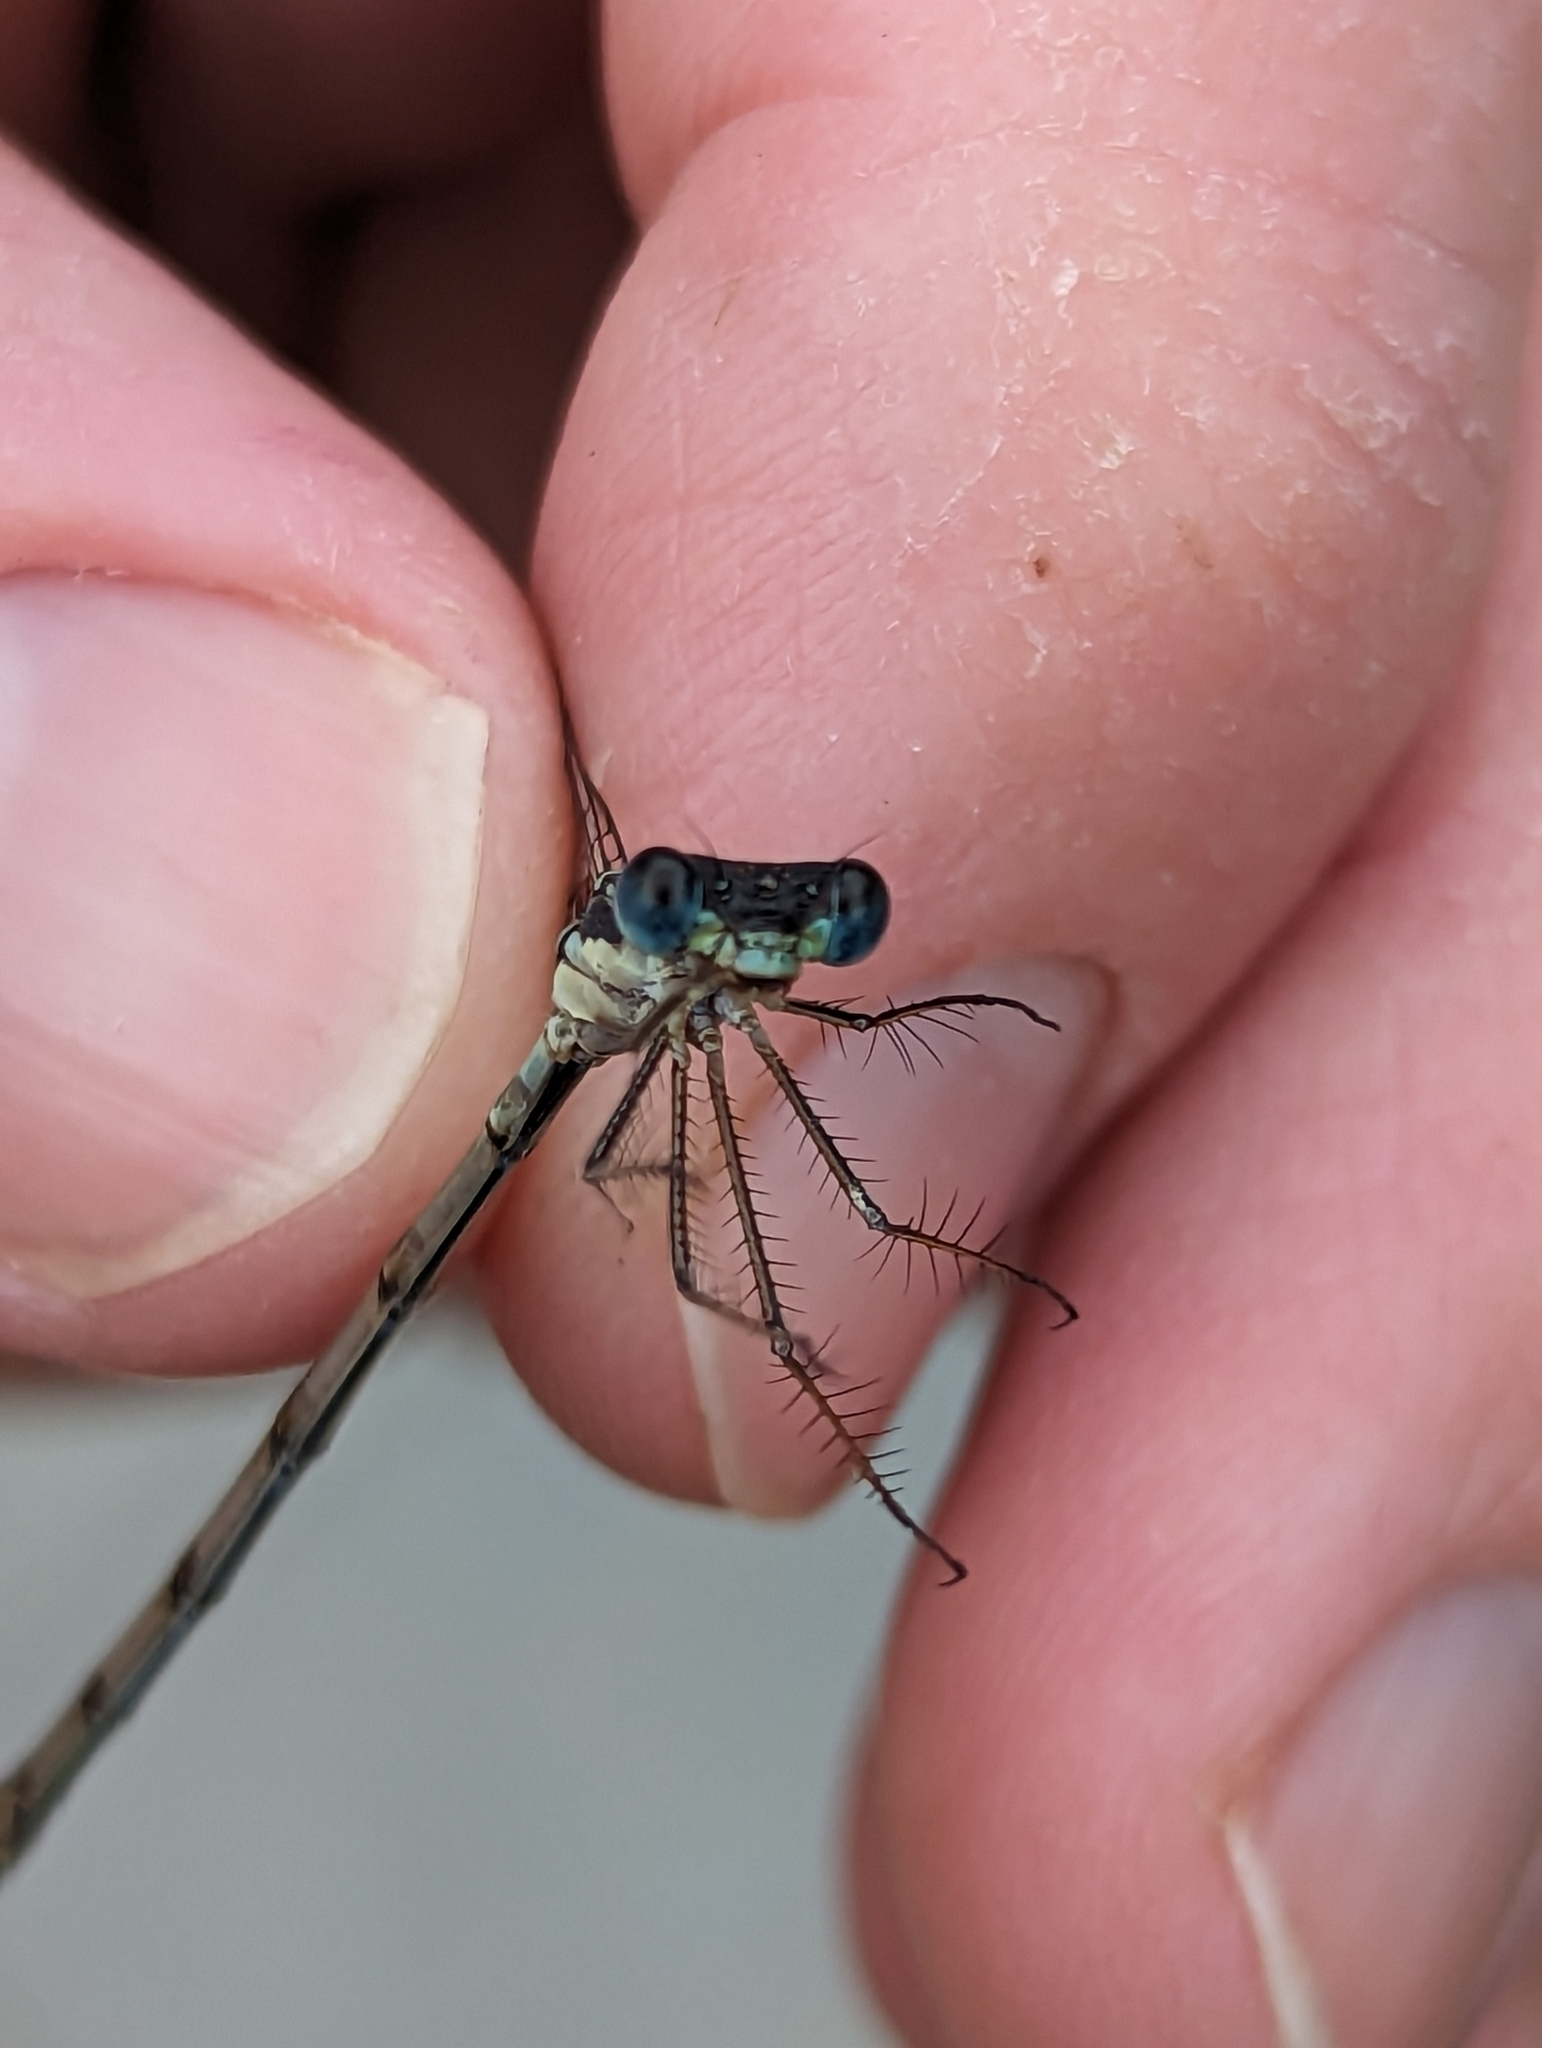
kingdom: Animalia
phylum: Arthropoda
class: Insecta
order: Odonata
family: Lestidae
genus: Lestes
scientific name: Lestes disjunctus
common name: Northern spreadwing
